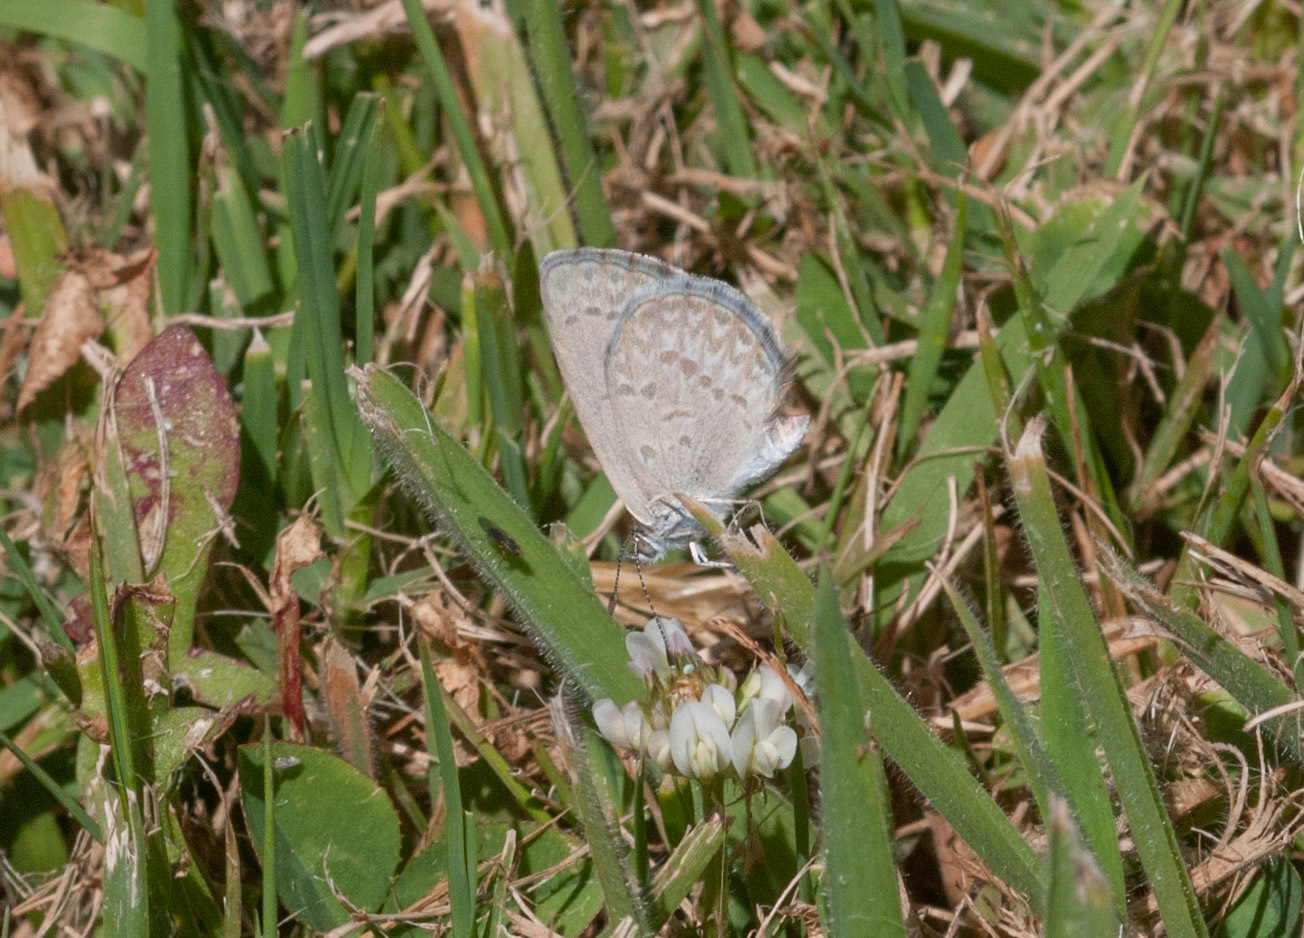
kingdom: Animalia
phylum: Arthropoda
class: Insecta
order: Lepidoptera
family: Lycaenidae
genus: Zizina
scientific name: Zizina labradus
